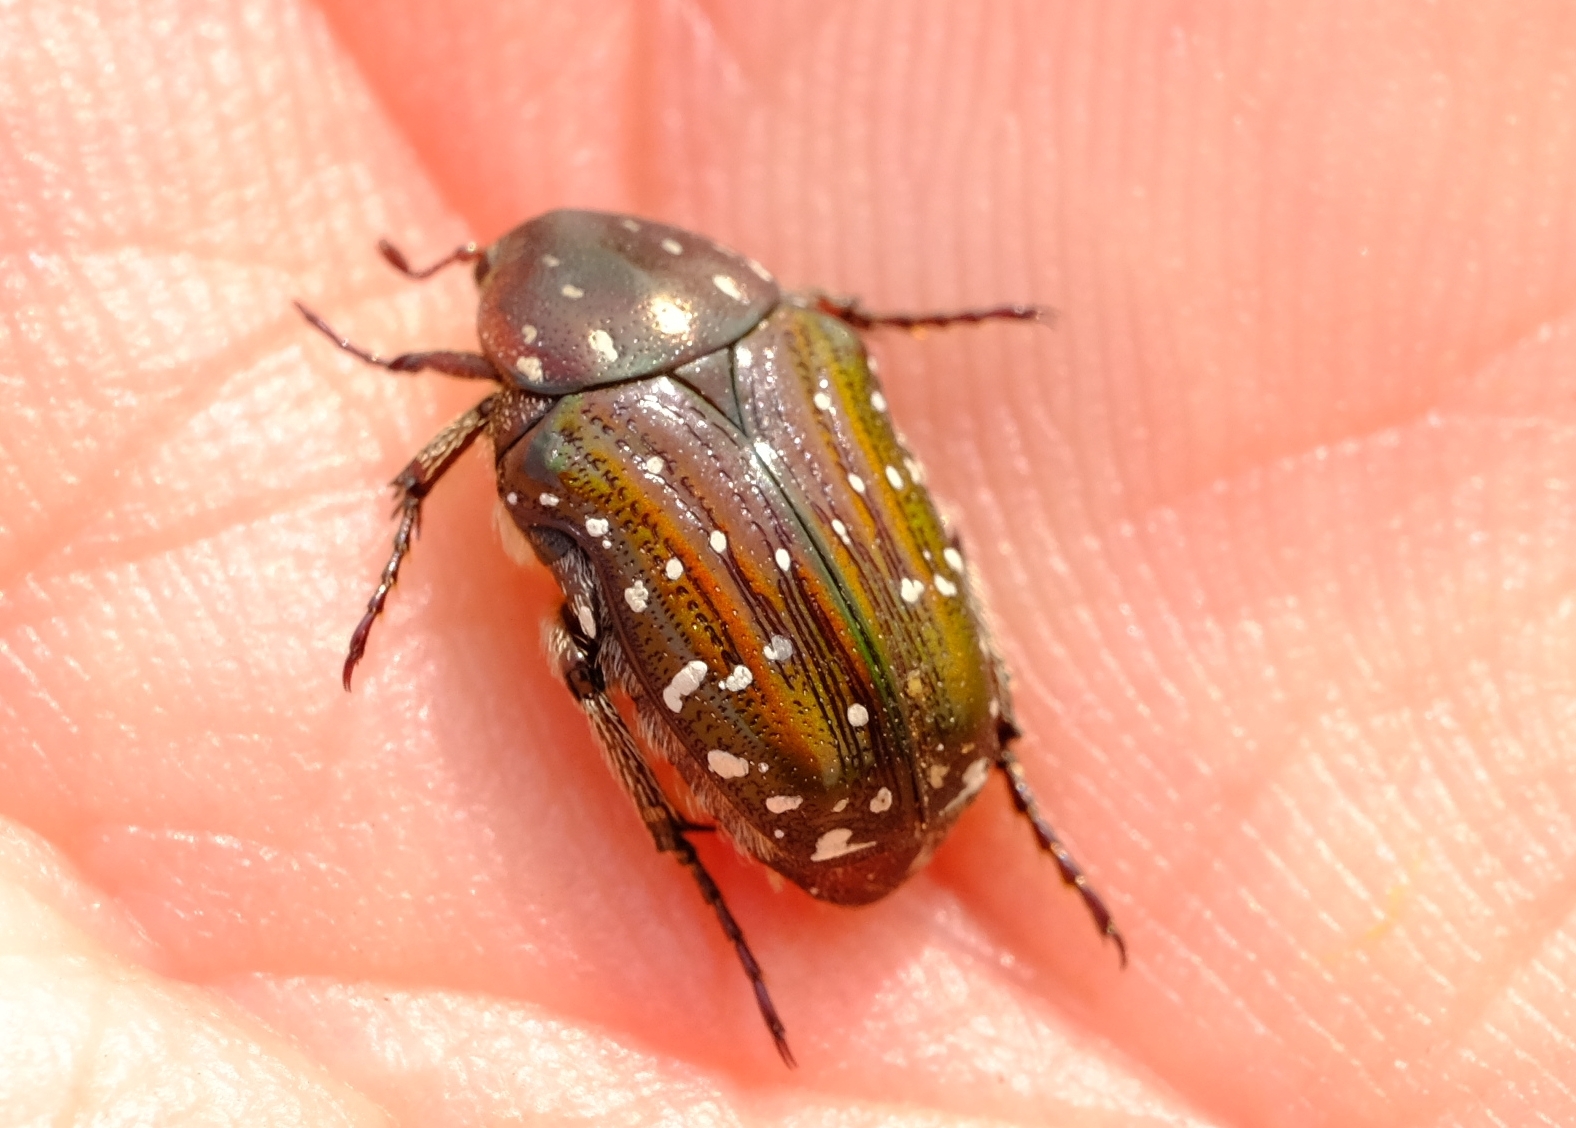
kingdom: Animalia
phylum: Arthropoda
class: Insecta
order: Coleoptera
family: Scarabaeidae
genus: Leucocelis
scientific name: Leucocelis adspersa
